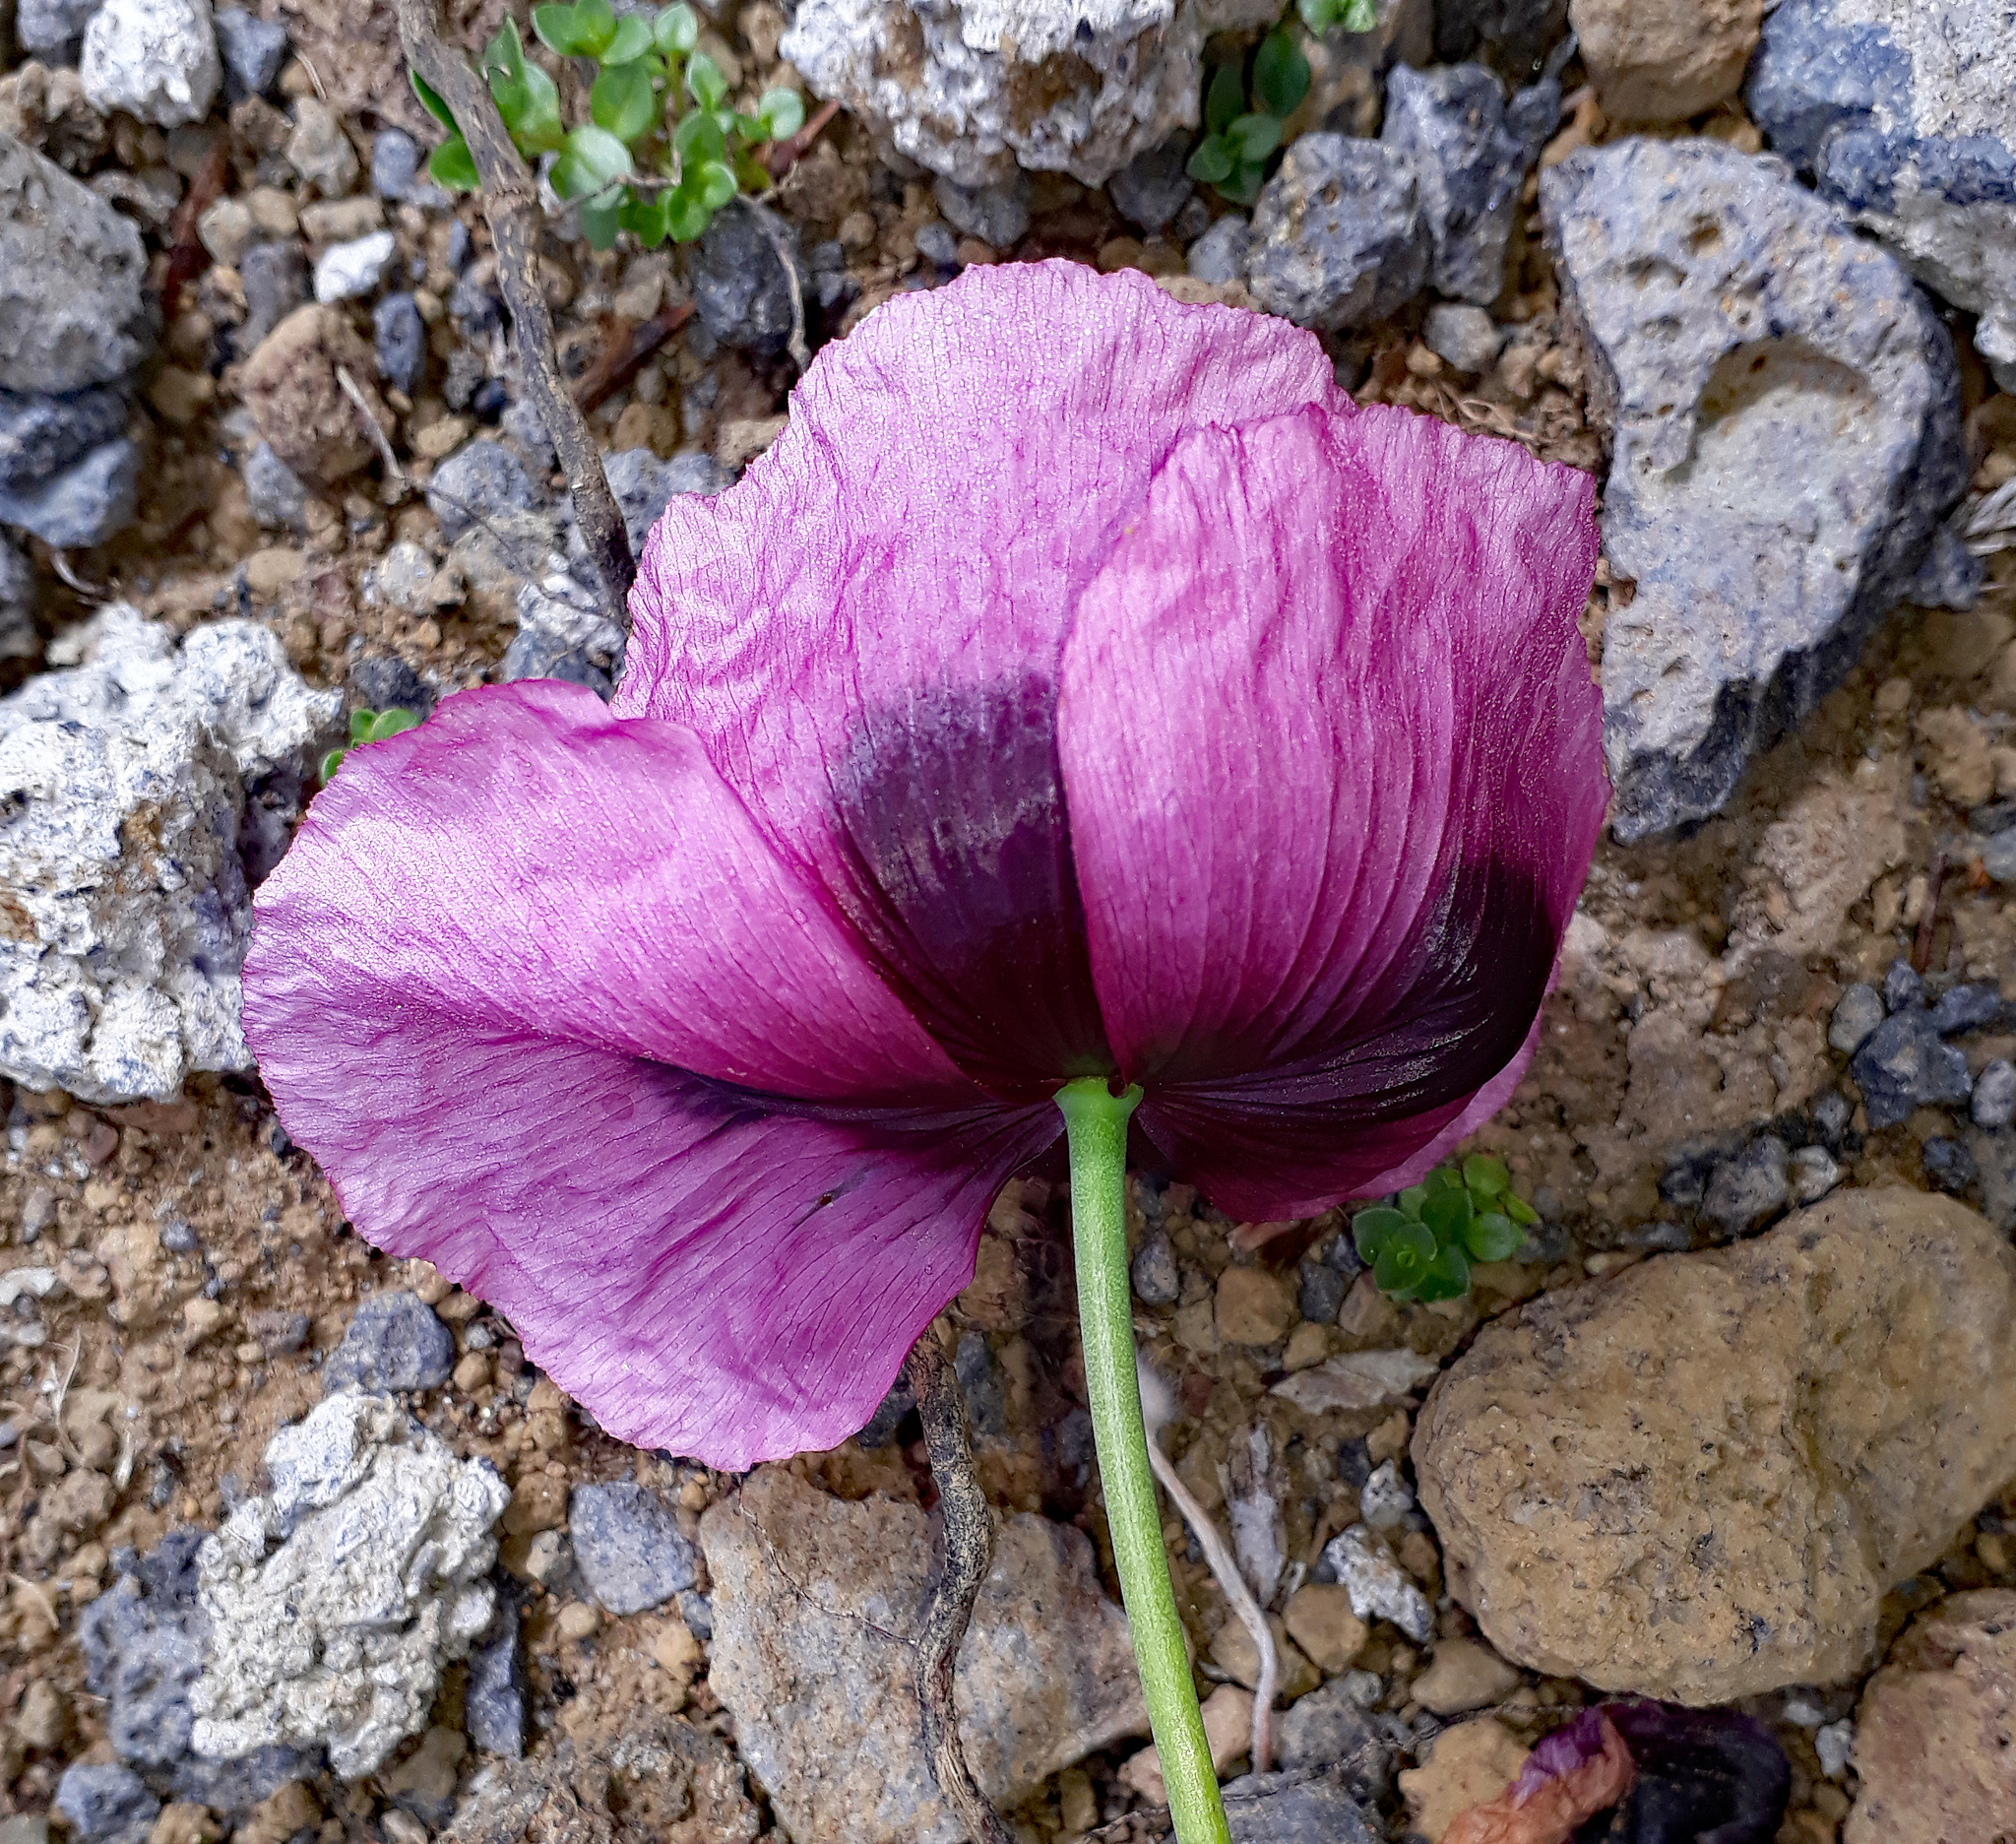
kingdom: Plantae
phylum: Tracheophyta
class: Magnoliopsida
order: Ranunculales
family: Papaveraceae
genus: Papaver
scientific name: Papaver setigerum
